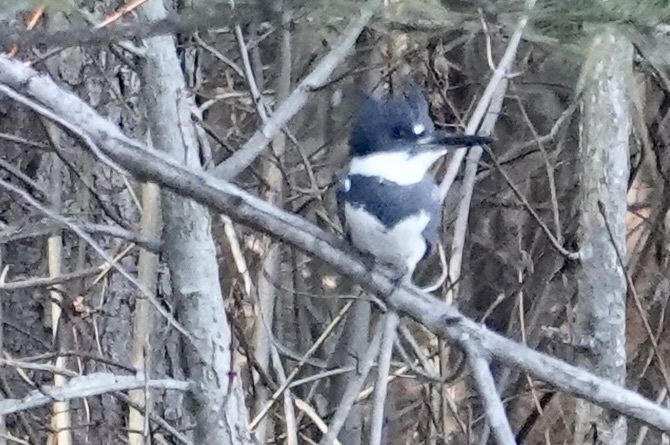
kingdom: Animalia
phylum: Chordata
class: Aves
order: Coraciiformes
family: Alcedinidae
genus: Megaceryle
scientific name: Megaceryle alcyon
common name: Belted kingfisher
